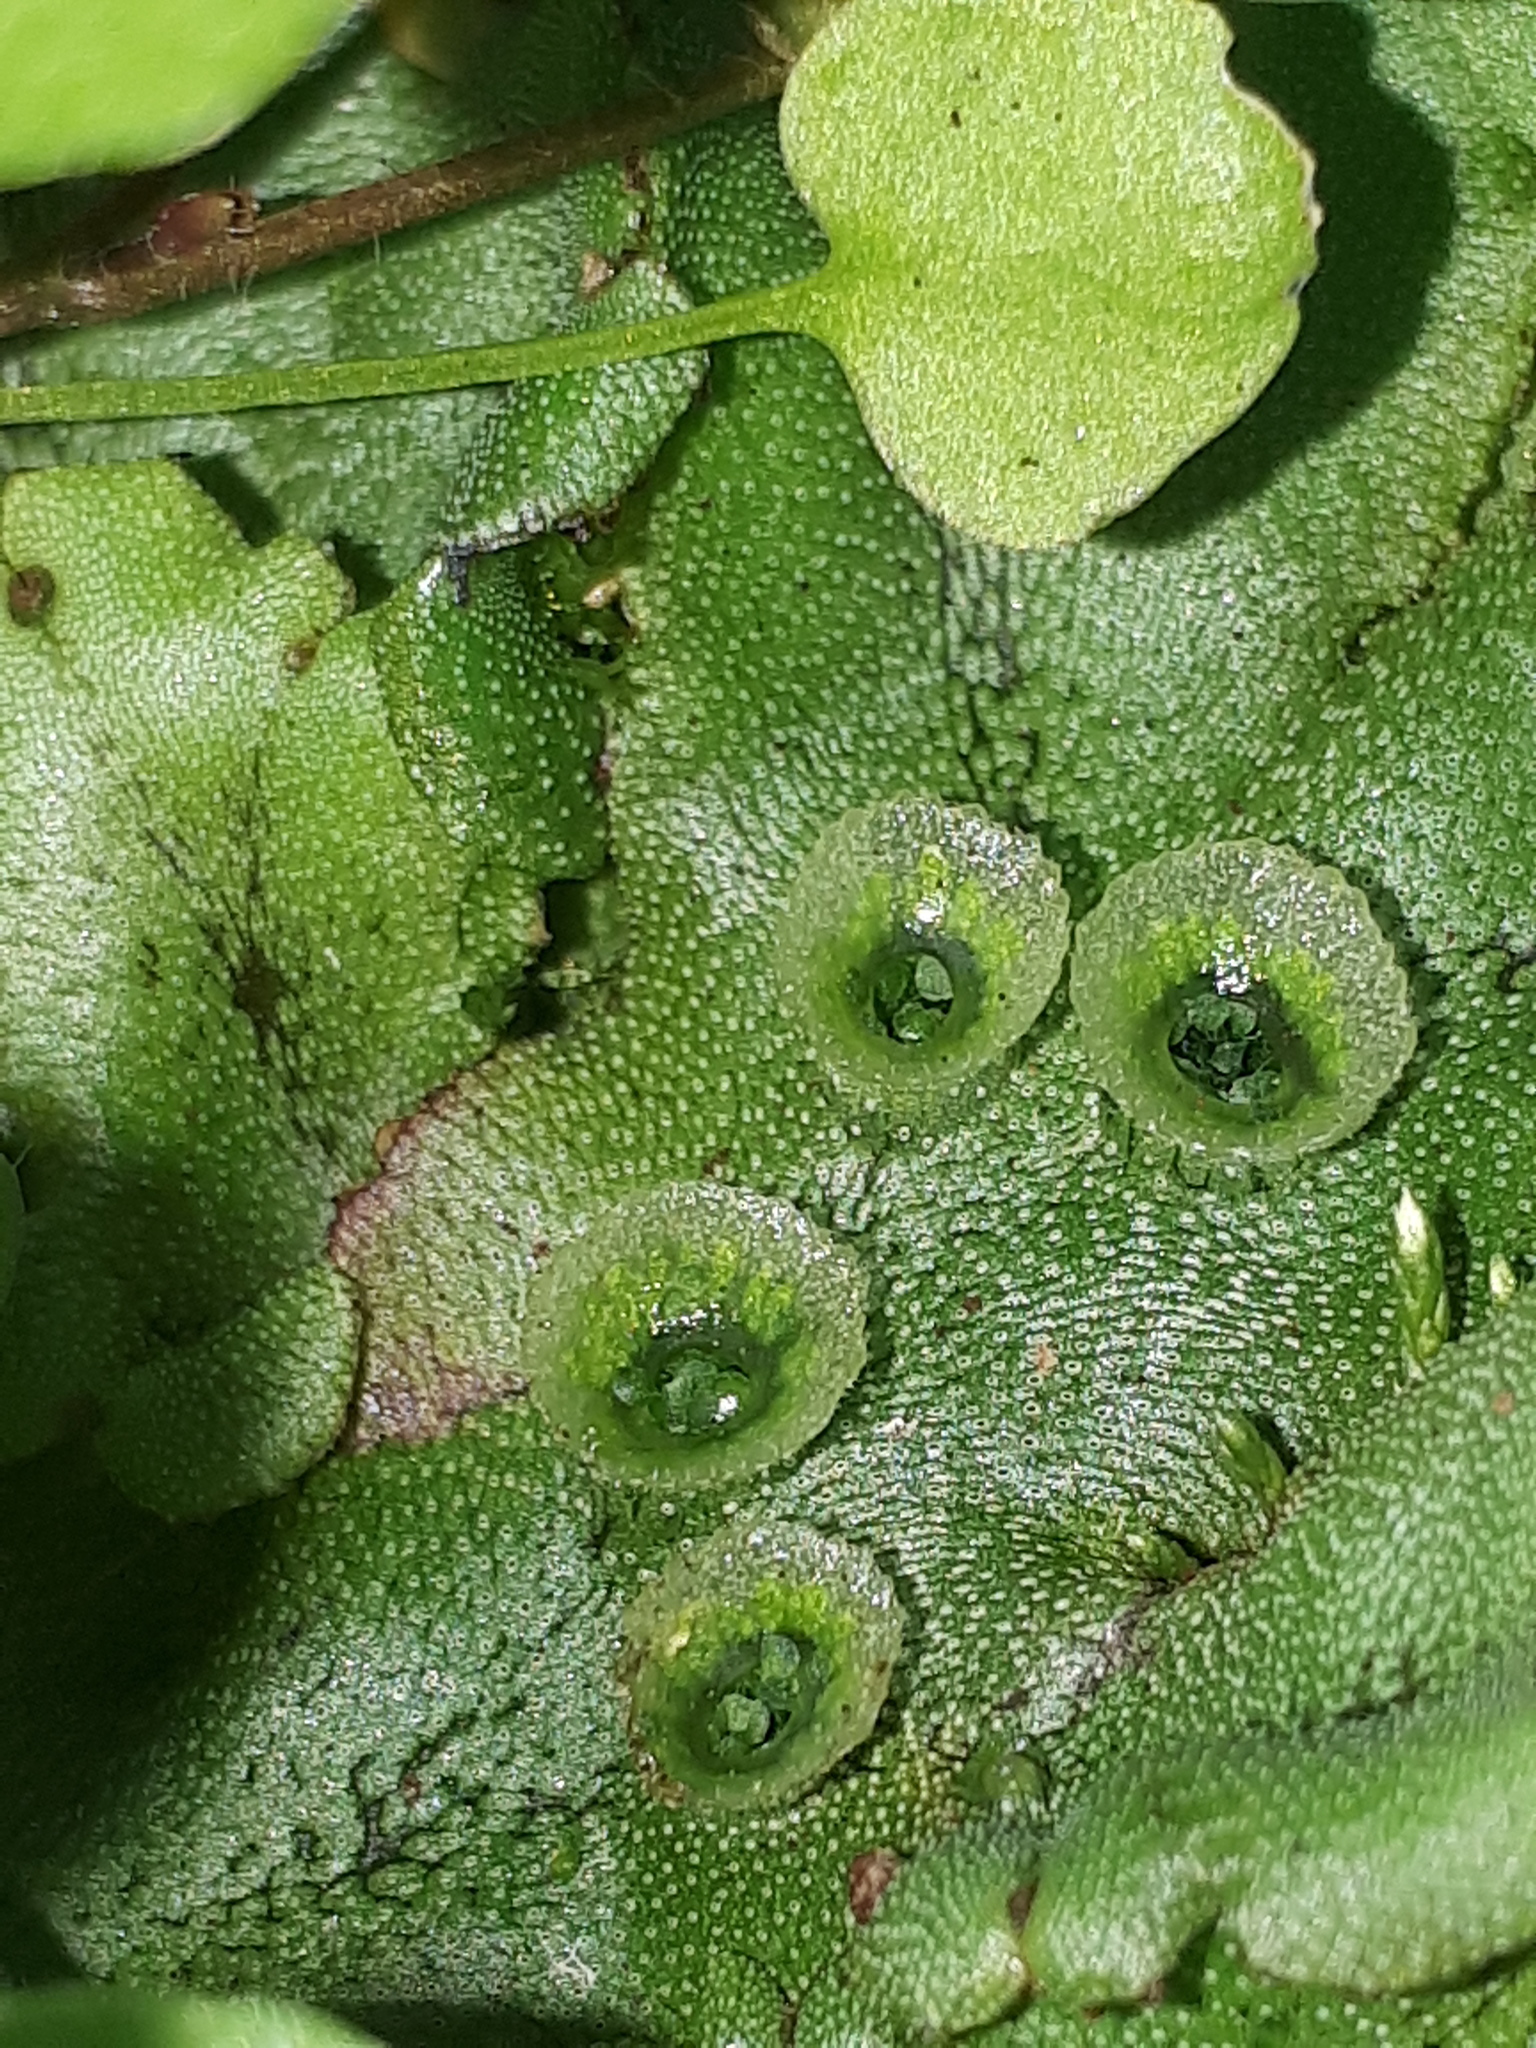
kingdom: Plantae
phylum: Marchantiophyta
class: Marchantiopsida
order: Marchantiales
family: Marchantiaceae
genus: Marchantia
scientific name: Marchantia polymorpha
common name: Common liverwort
